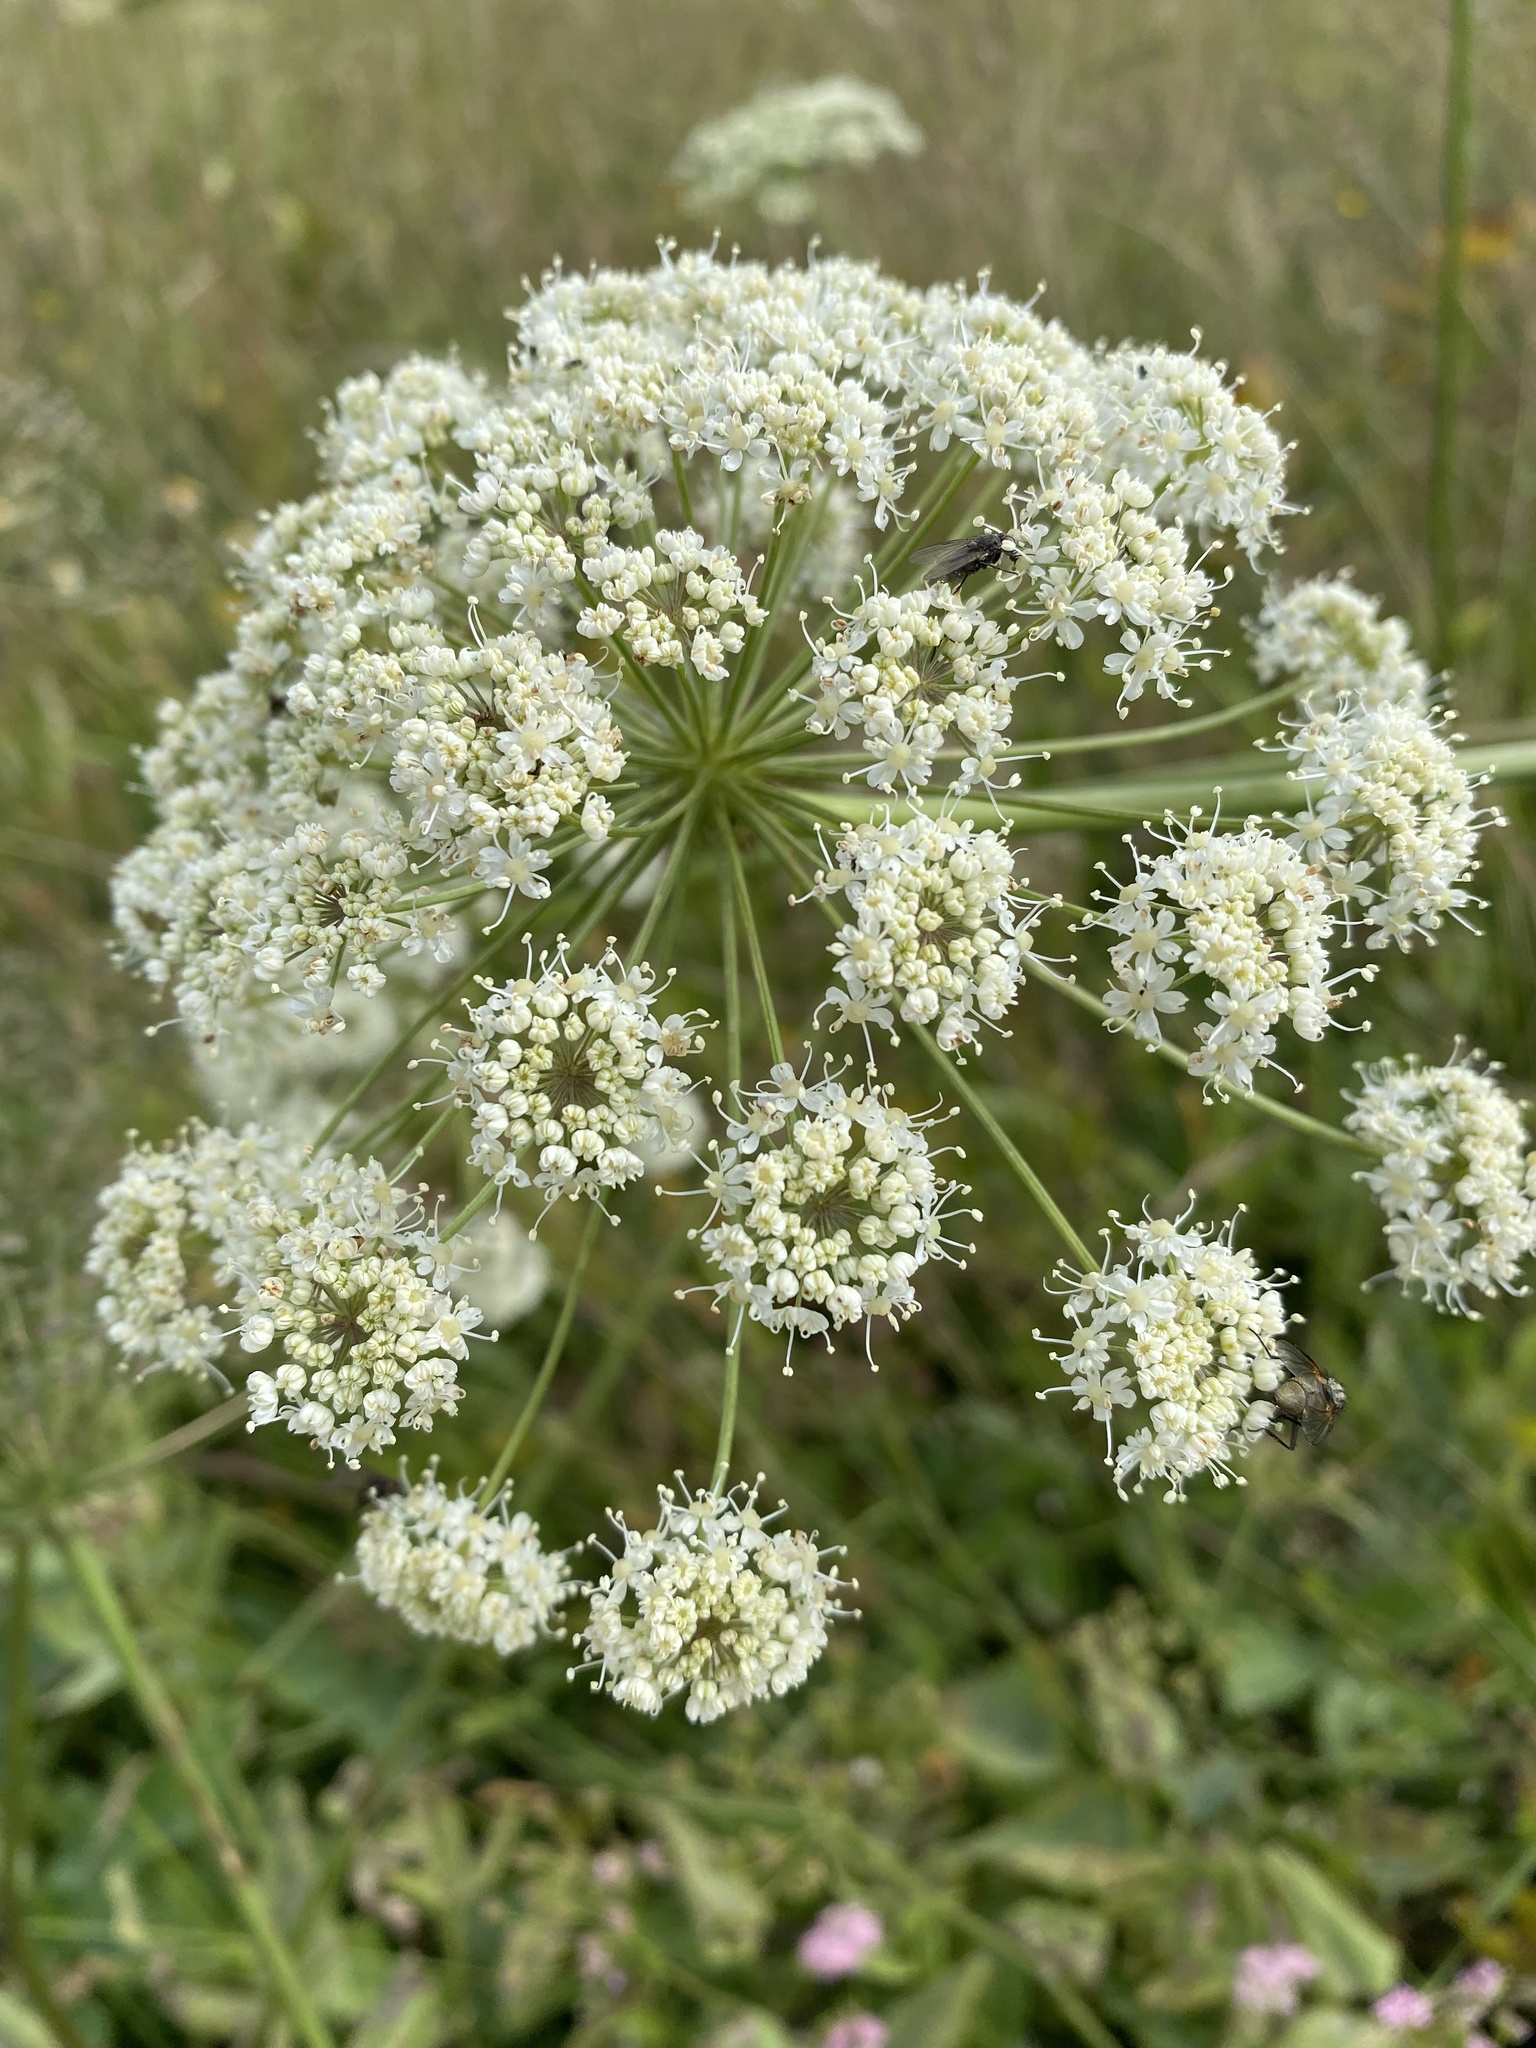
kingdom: Plantae
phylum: Tracheophyta
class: Magnoliopsida
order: Apiales
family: Apiaceae
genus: Laserpitium
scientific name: Laserpitium latifolium
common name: Broadleaf sermountain
